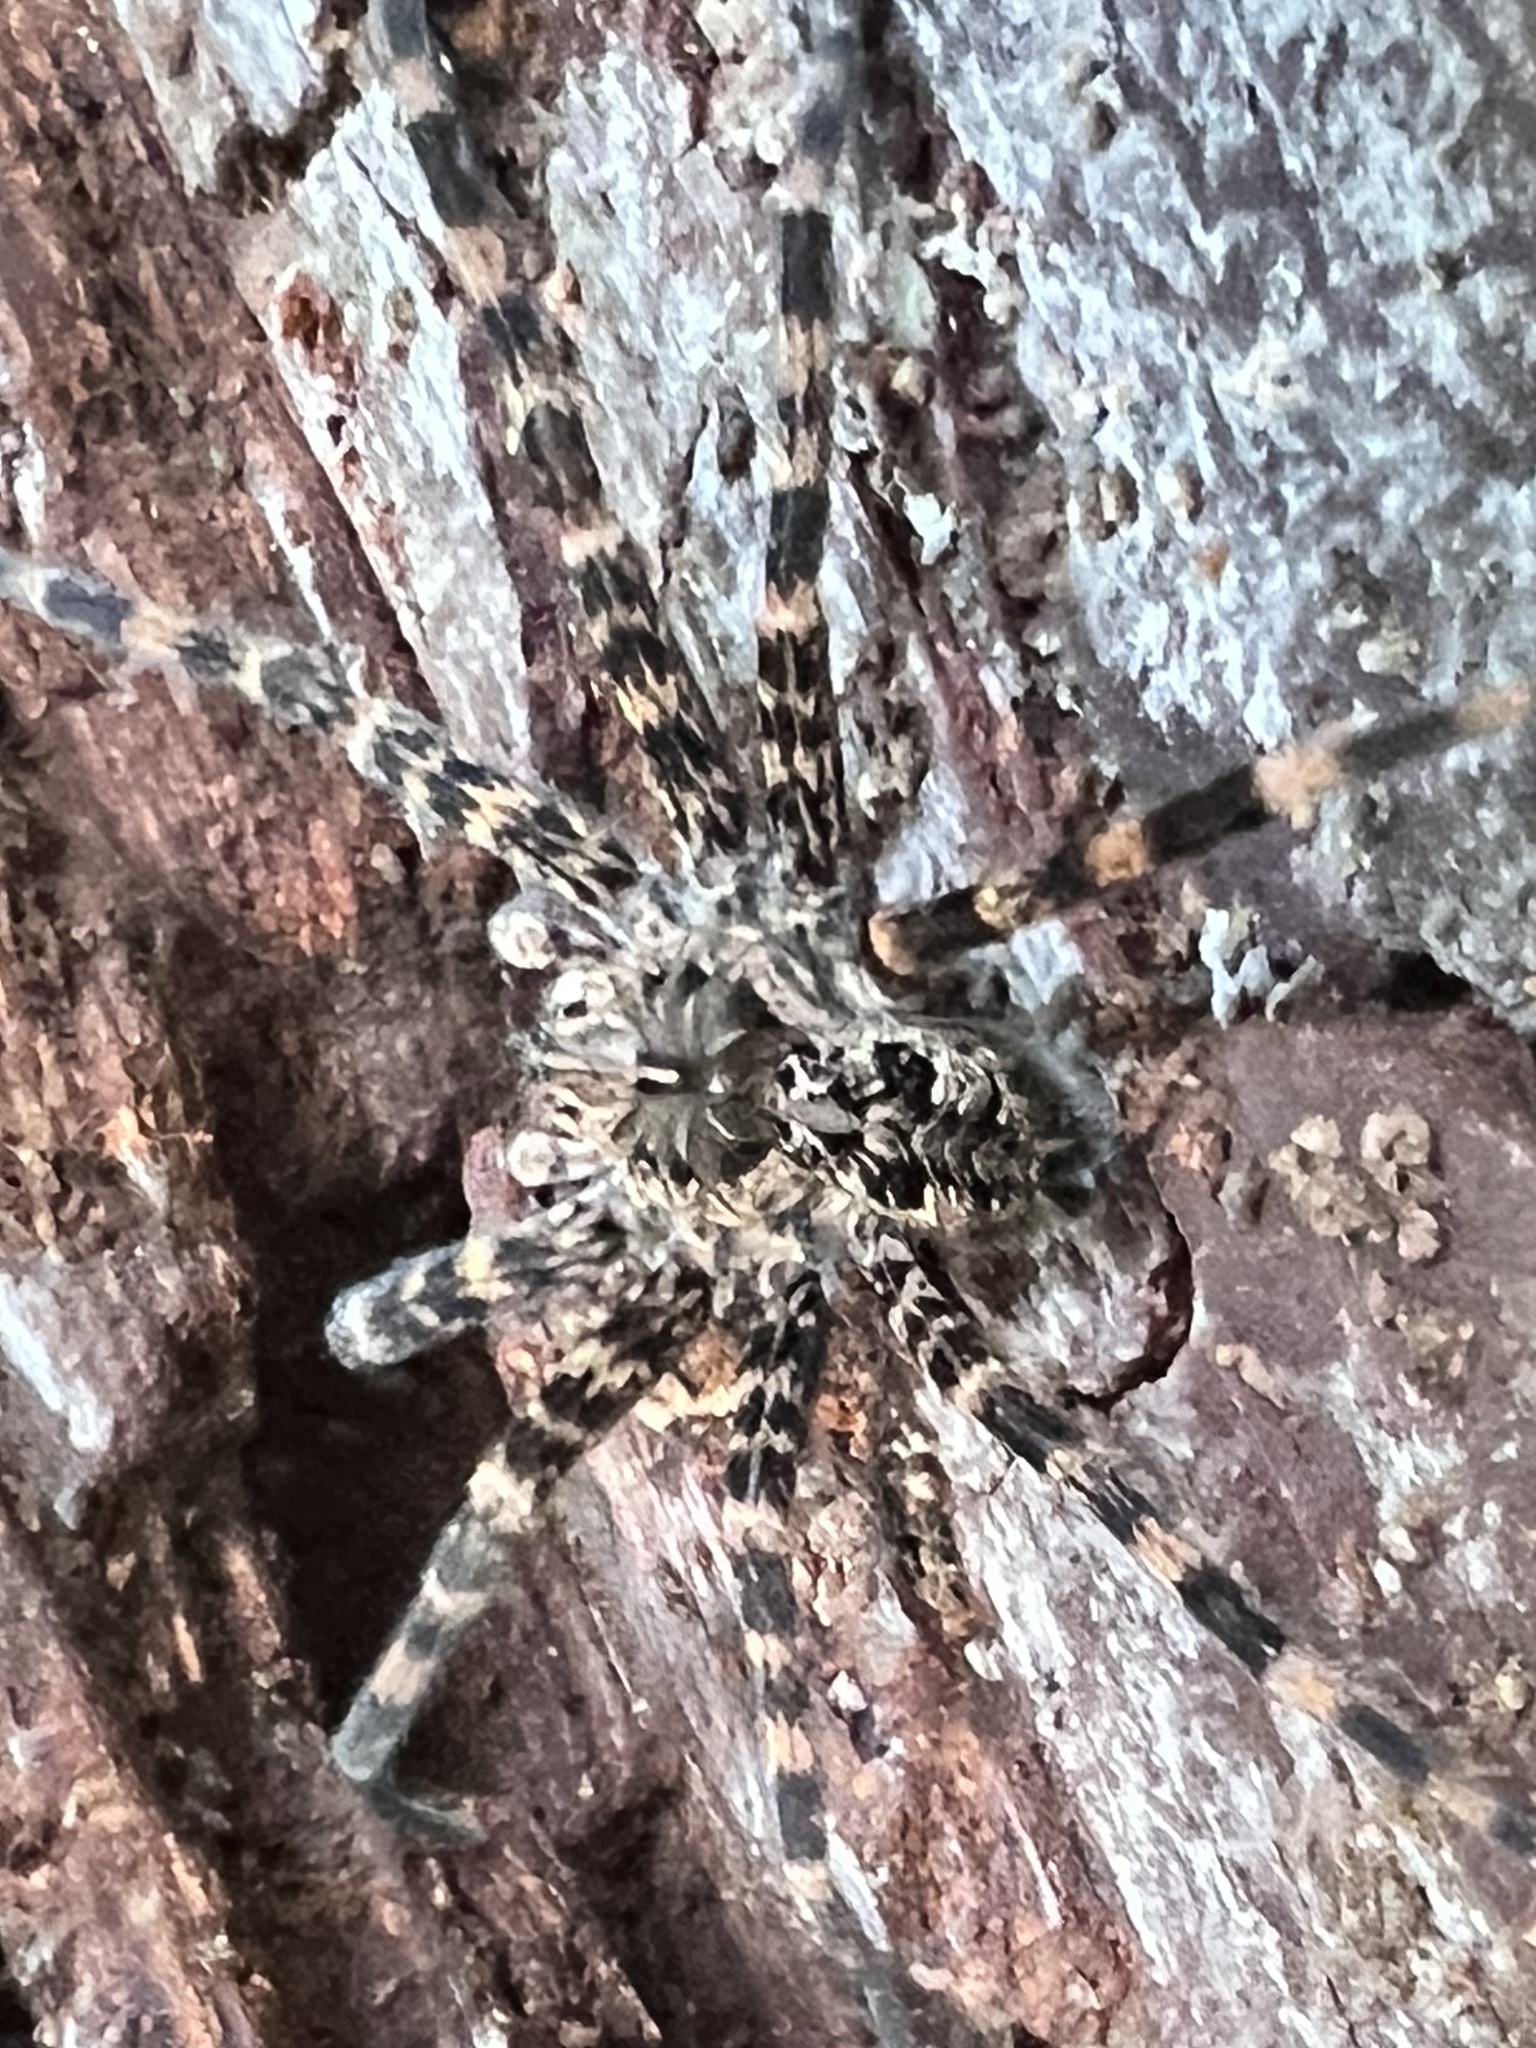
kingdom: Animalia
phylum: Arthropoda
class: Arachnida
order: Araneae
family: Pisauridae
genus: Dolomedes
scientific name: Dolomedes tenebrosus
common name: Dark fishing spider
